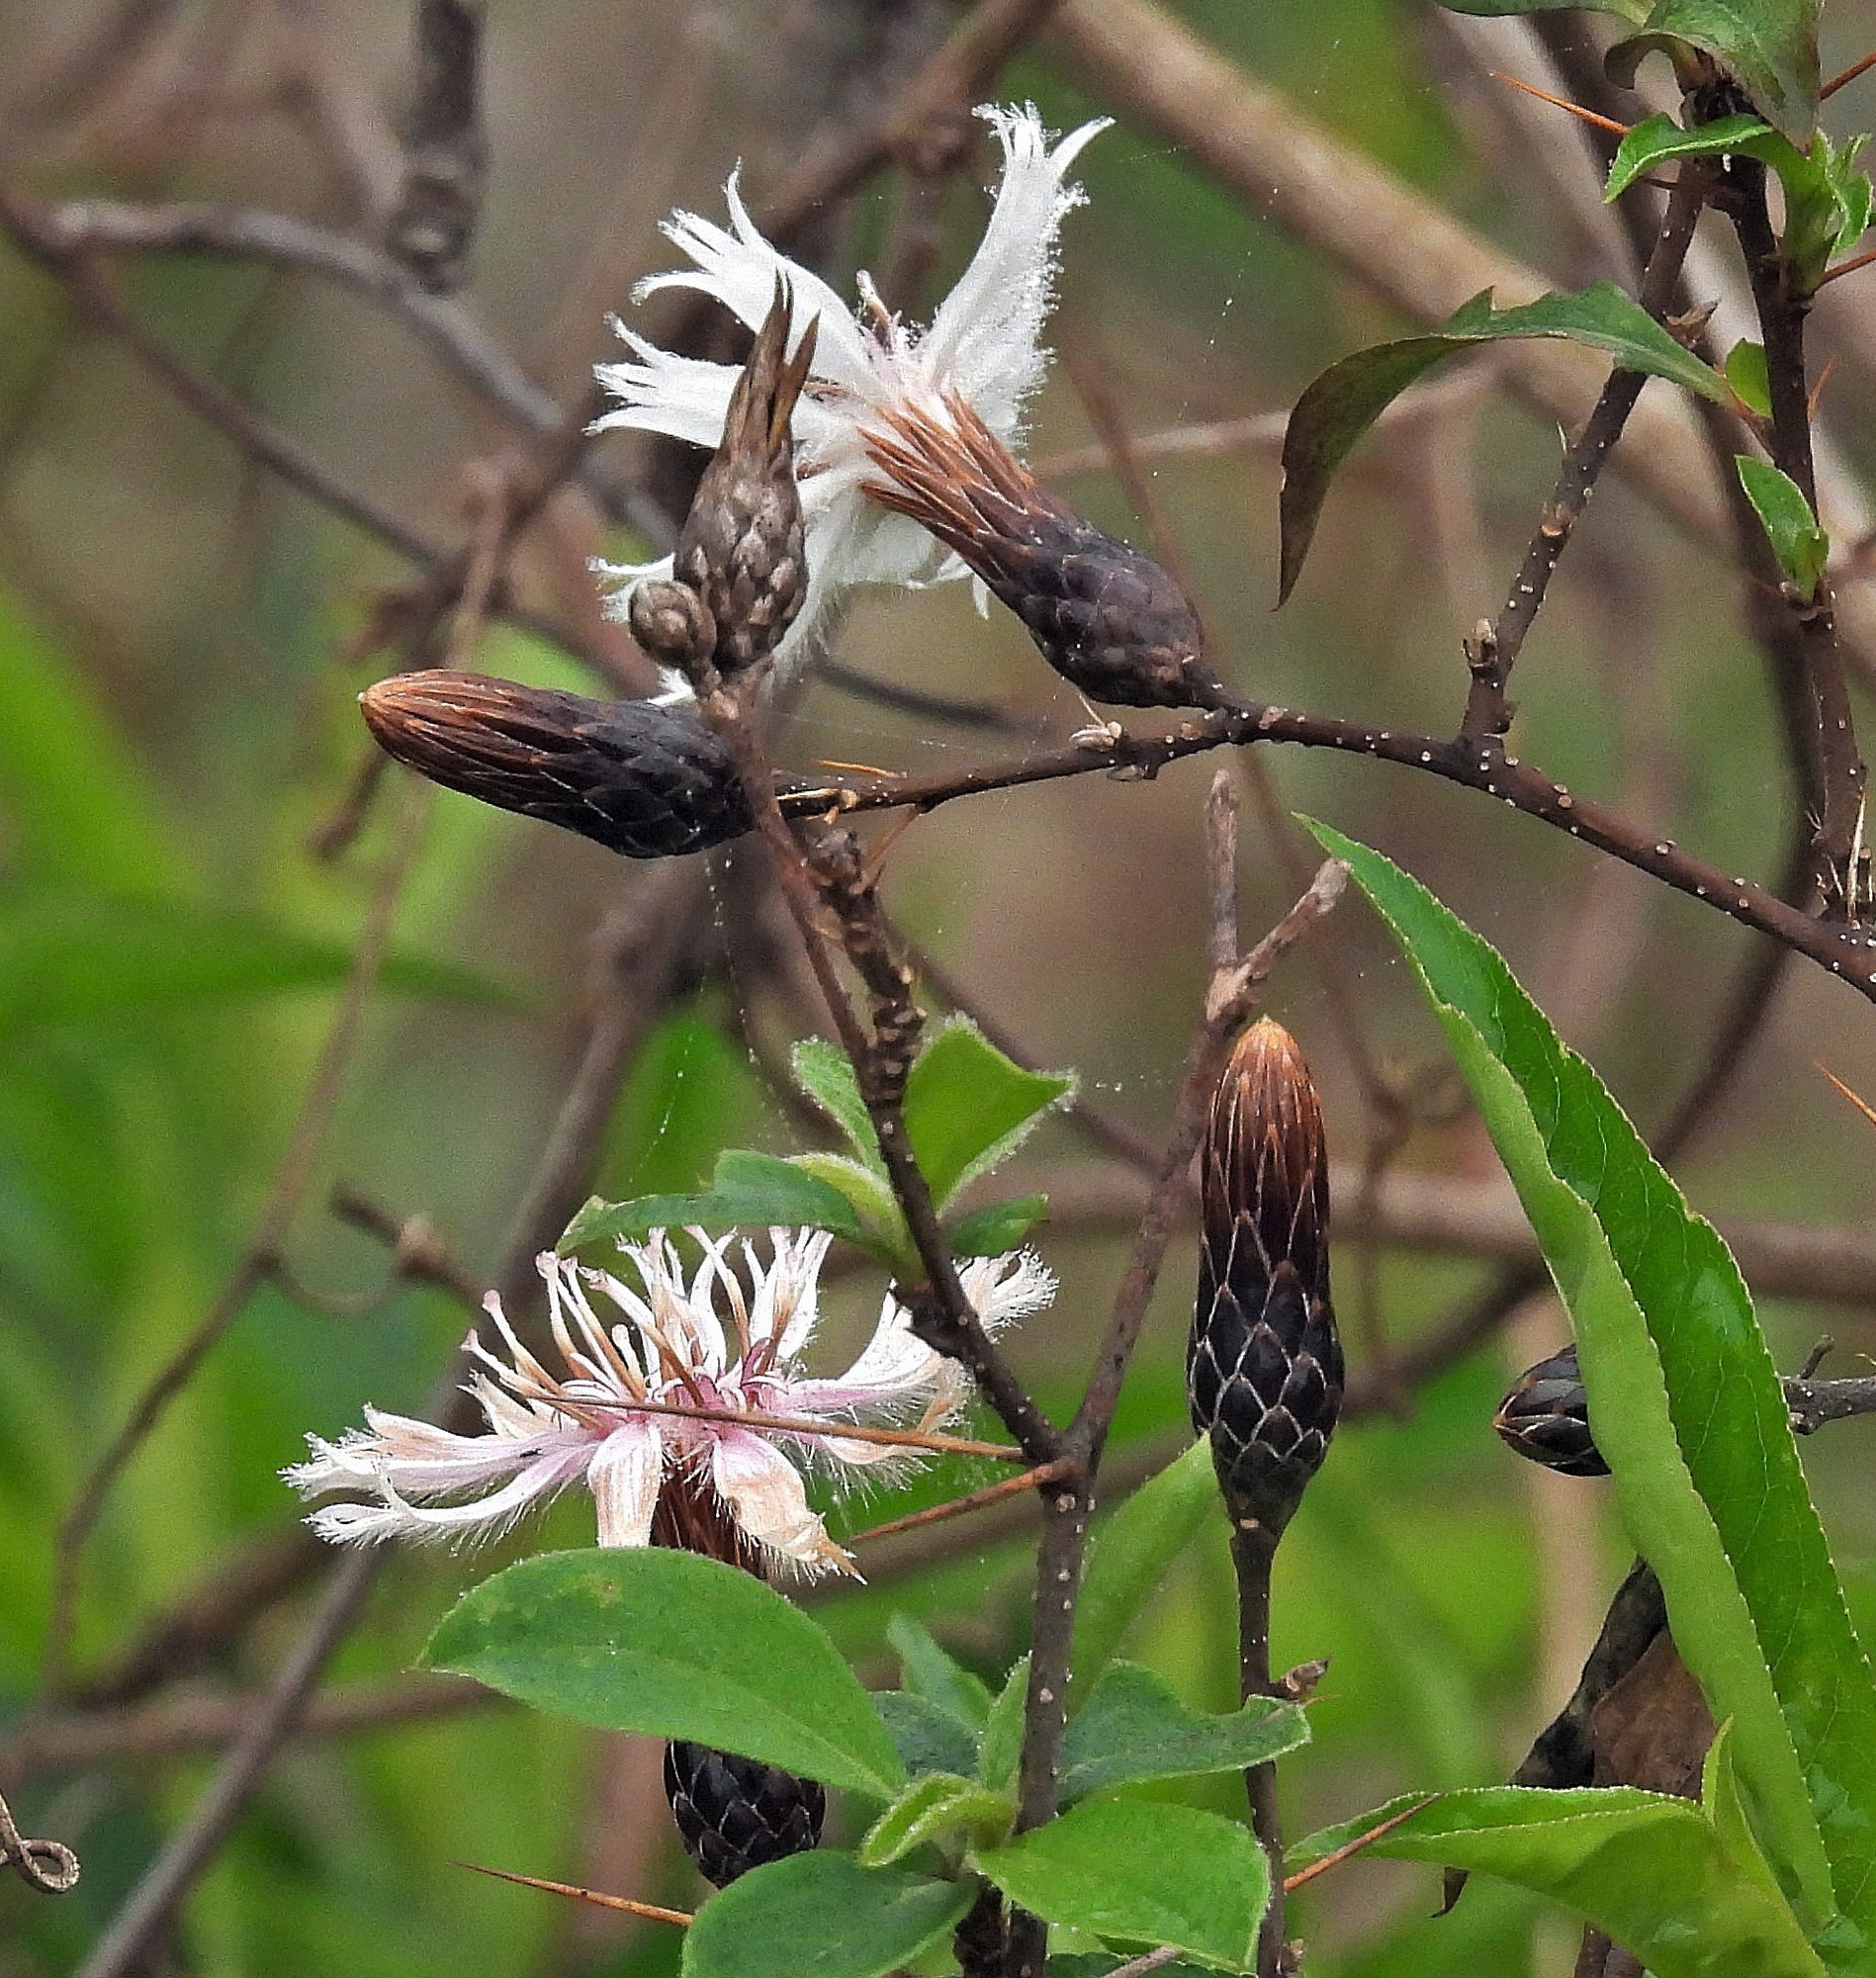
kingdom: Plantae
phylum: Tracheophyta
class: Magnoliopsida
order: Asterales
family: Asteraceae
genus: Barnadesia
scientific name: Barnadesia odorata
